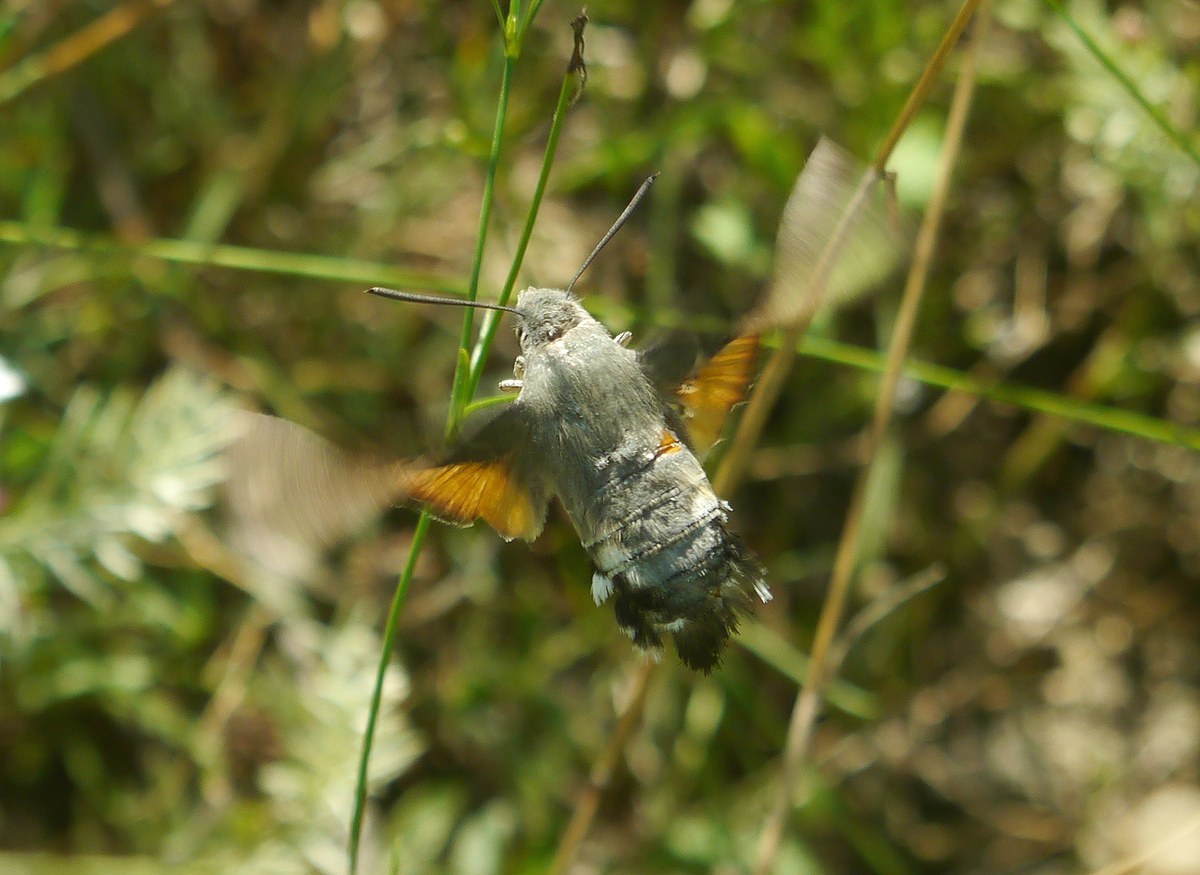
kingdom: Animalia
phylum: Arthropoda
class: Insecta
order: Lepidoptera
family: Sphingidae
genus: Macroglossum
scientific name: Macroglossum stellatarum
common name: Humming-bird hawk-moth
